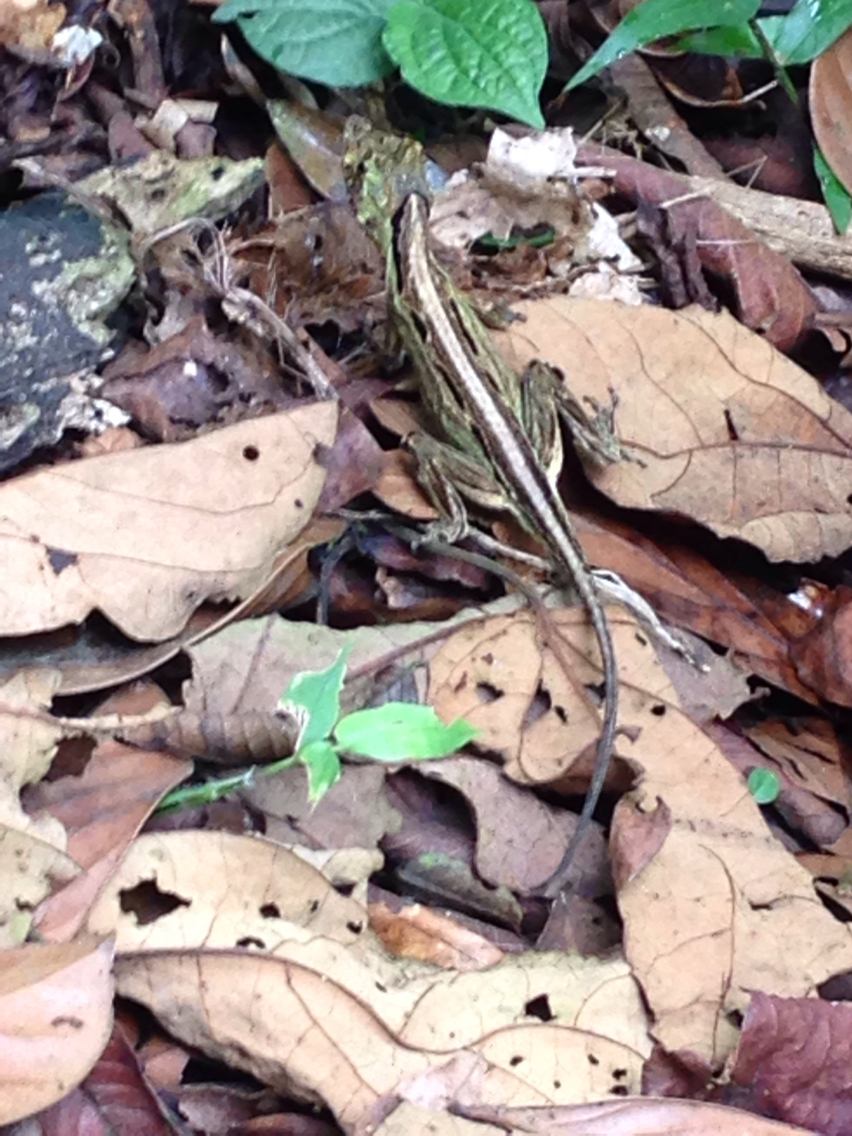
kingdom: Animalia
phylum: Chordata
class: Squamata
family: Dactyloidae
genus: Anolis
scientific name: Anolis capito
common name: Bighead anole
